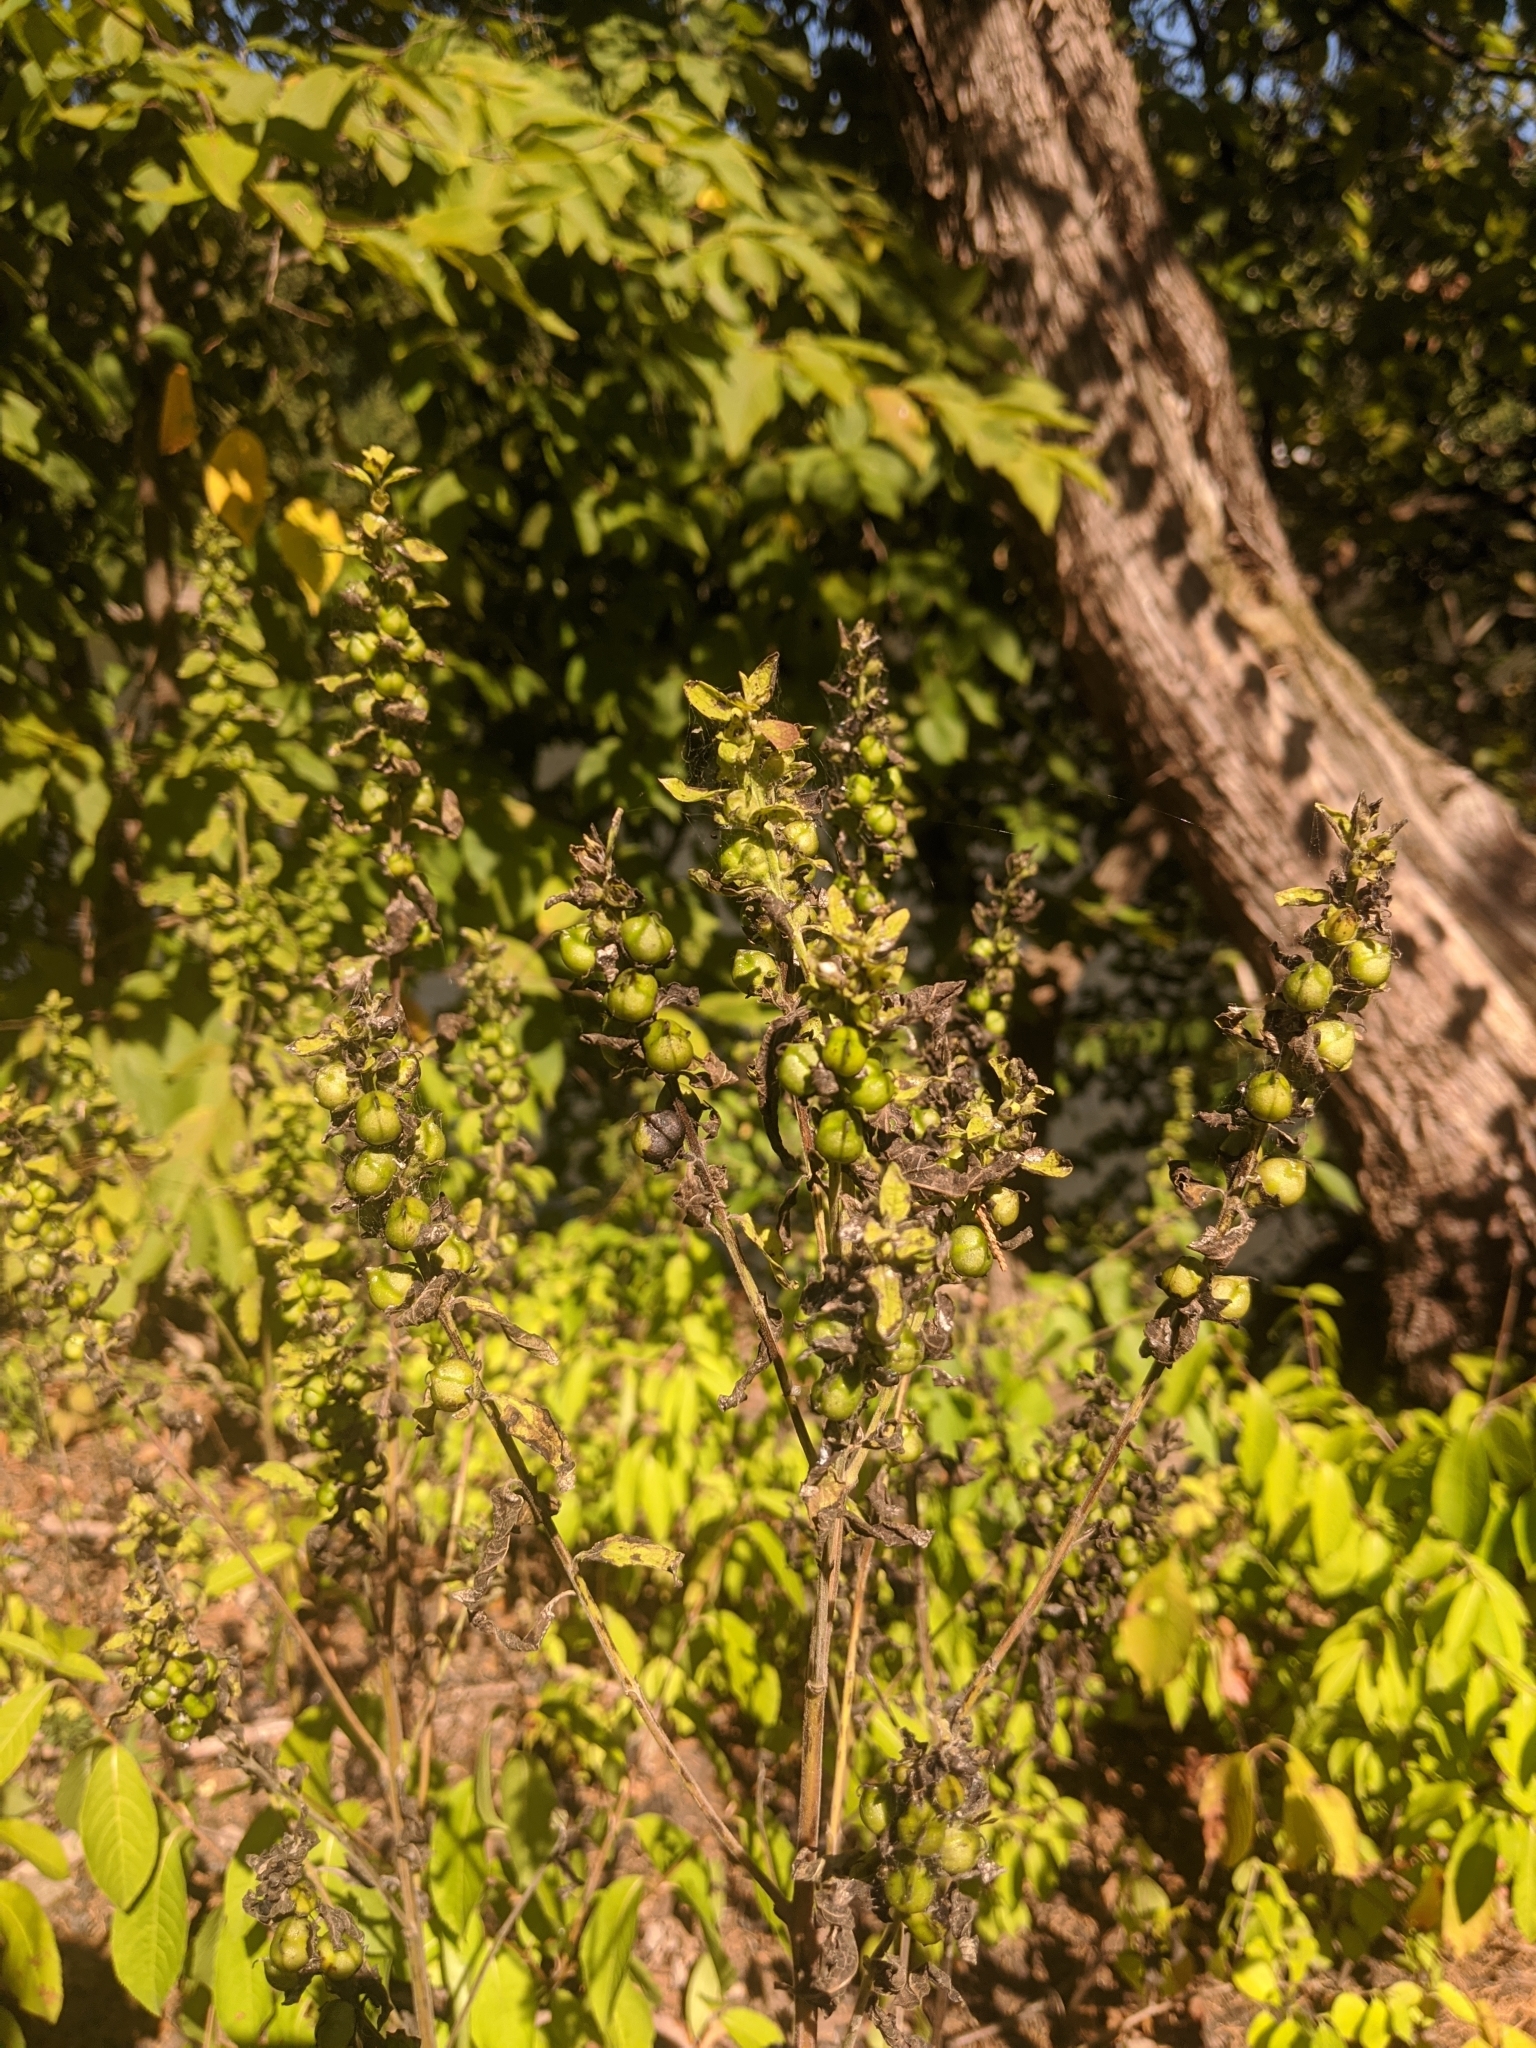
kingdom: Plantae
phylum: Tracheophyta
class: Magnoliopsida
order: Lamiales
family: Orobanchaceae
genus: Dasistoma
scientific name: Dasistoma macrophyllum
